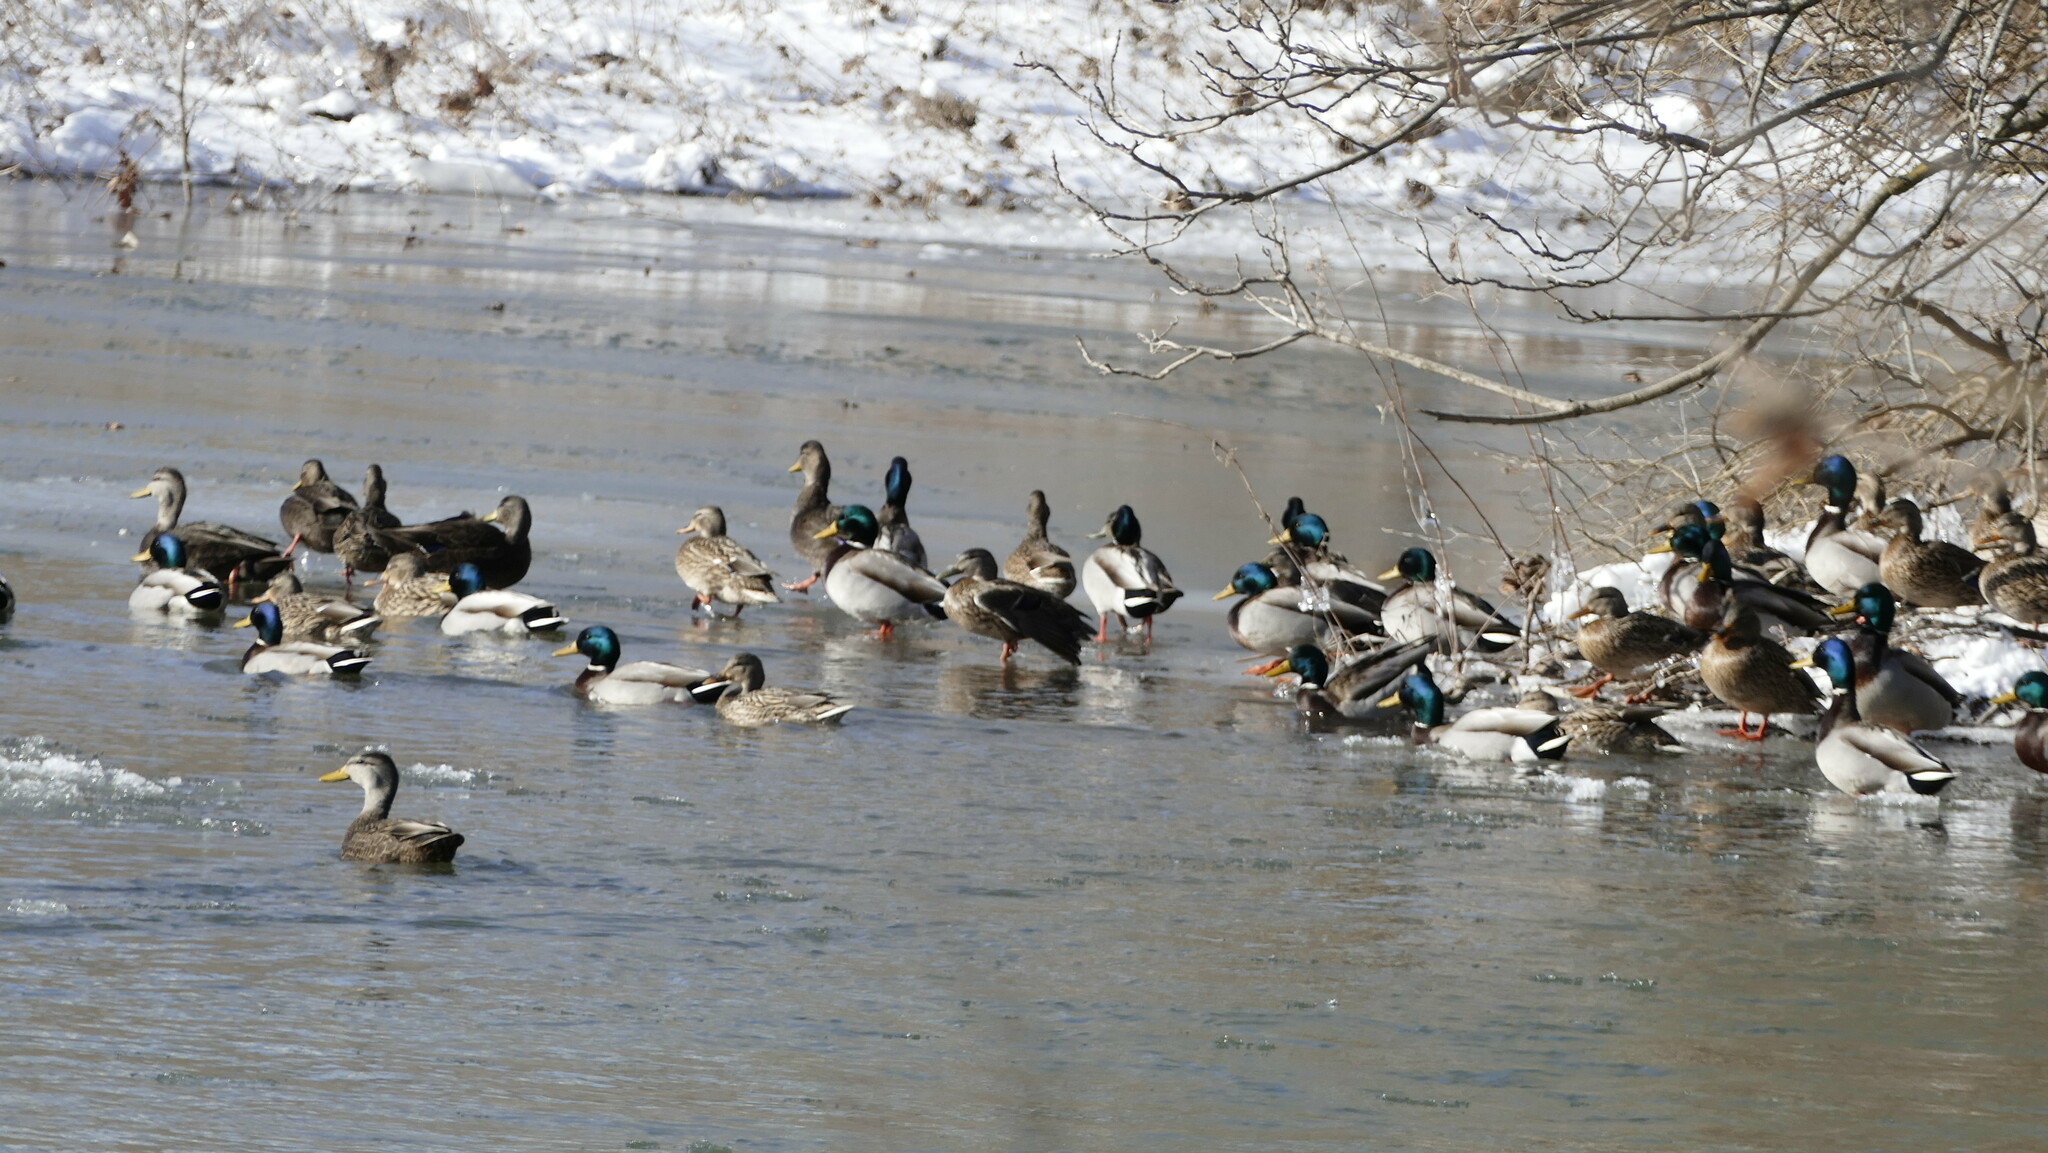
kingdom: Animalia
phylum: Chordata
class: Aves
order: Anseriformes
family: Anatidae
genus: Anas
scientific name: Anas platyrhynchos
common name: Mallard
